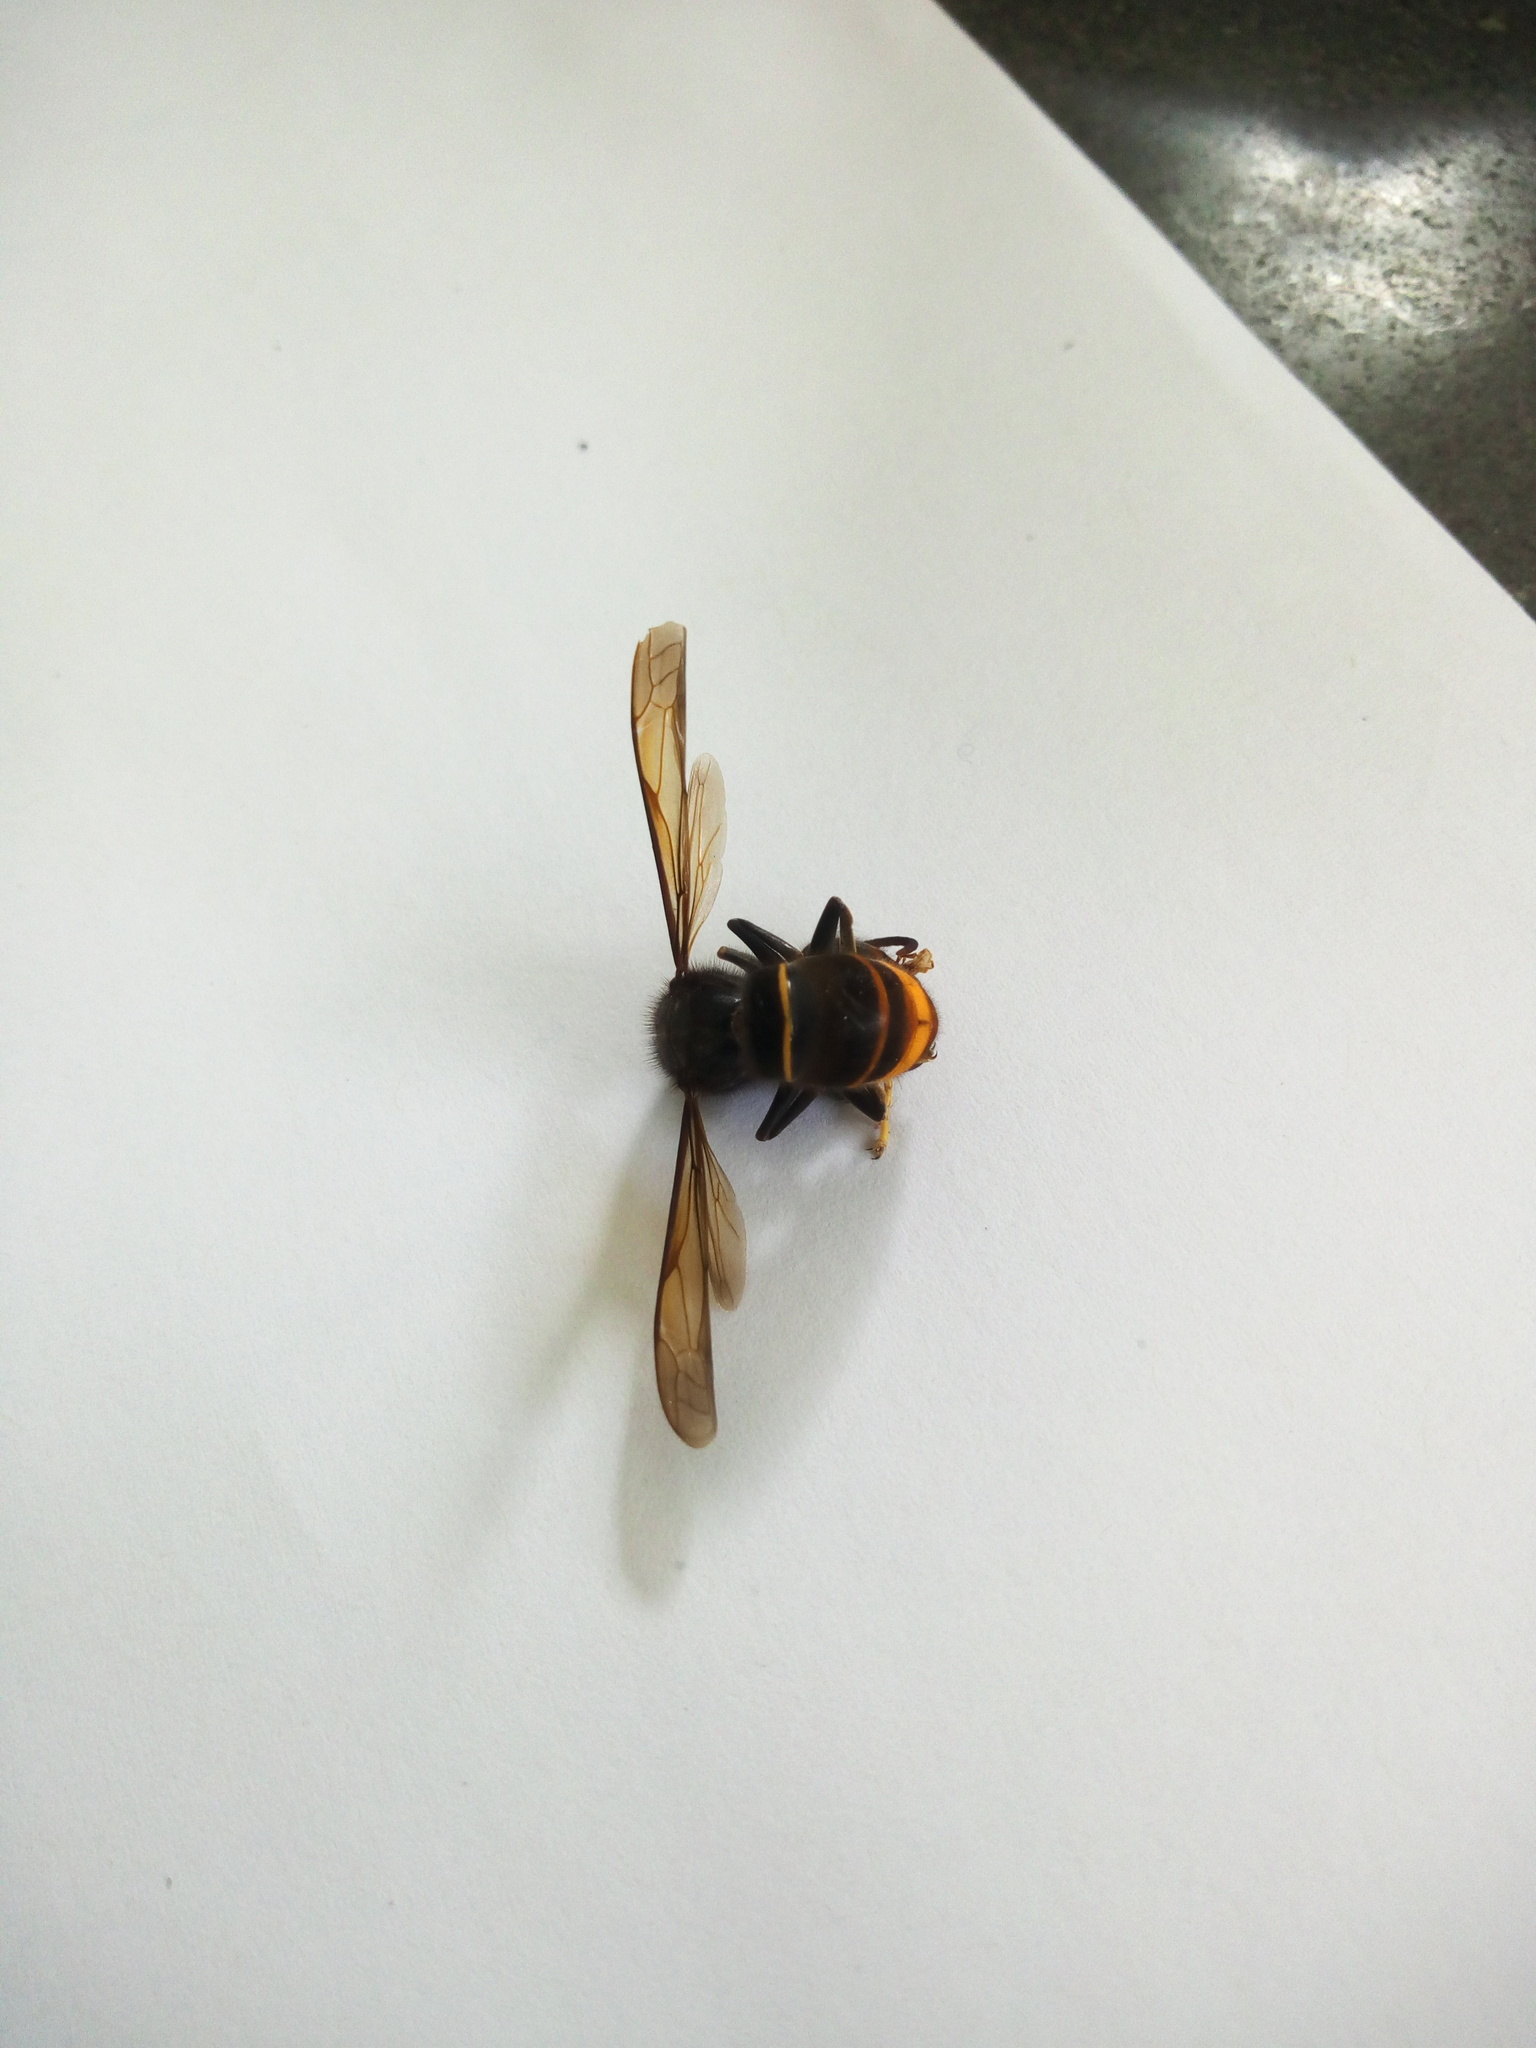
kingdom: Animalia
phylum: Arthropoda
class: Insecta
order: Hymenoptera
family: Vespidae
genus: Vespa
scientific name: Vespa velutina
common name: Asian hornet
